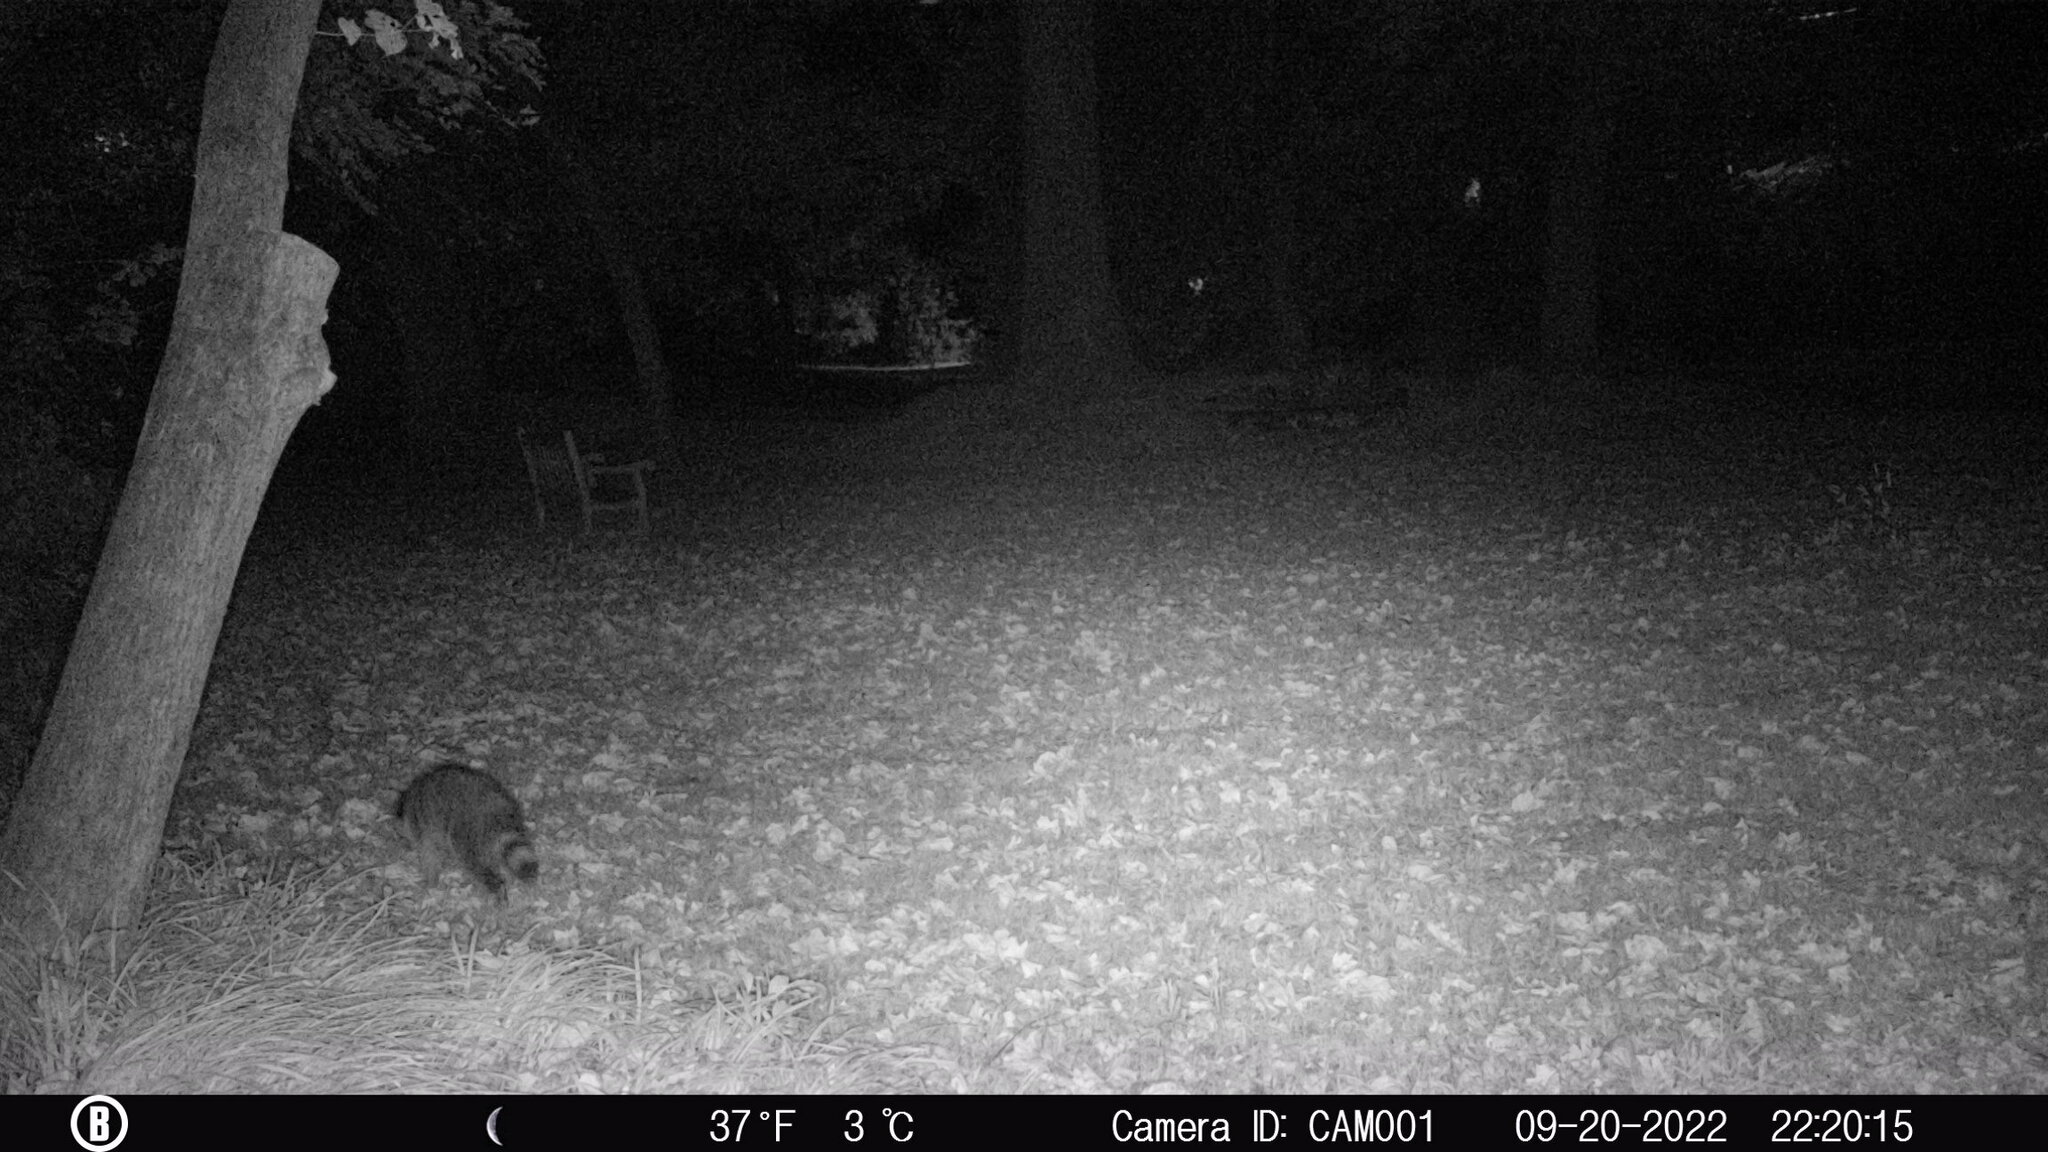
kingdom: Animalia
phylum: Chordata
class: Mammalia
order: Carnivora
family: Procyonidae
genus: Procyon
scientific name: Procyon lotor
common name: Raccoon
